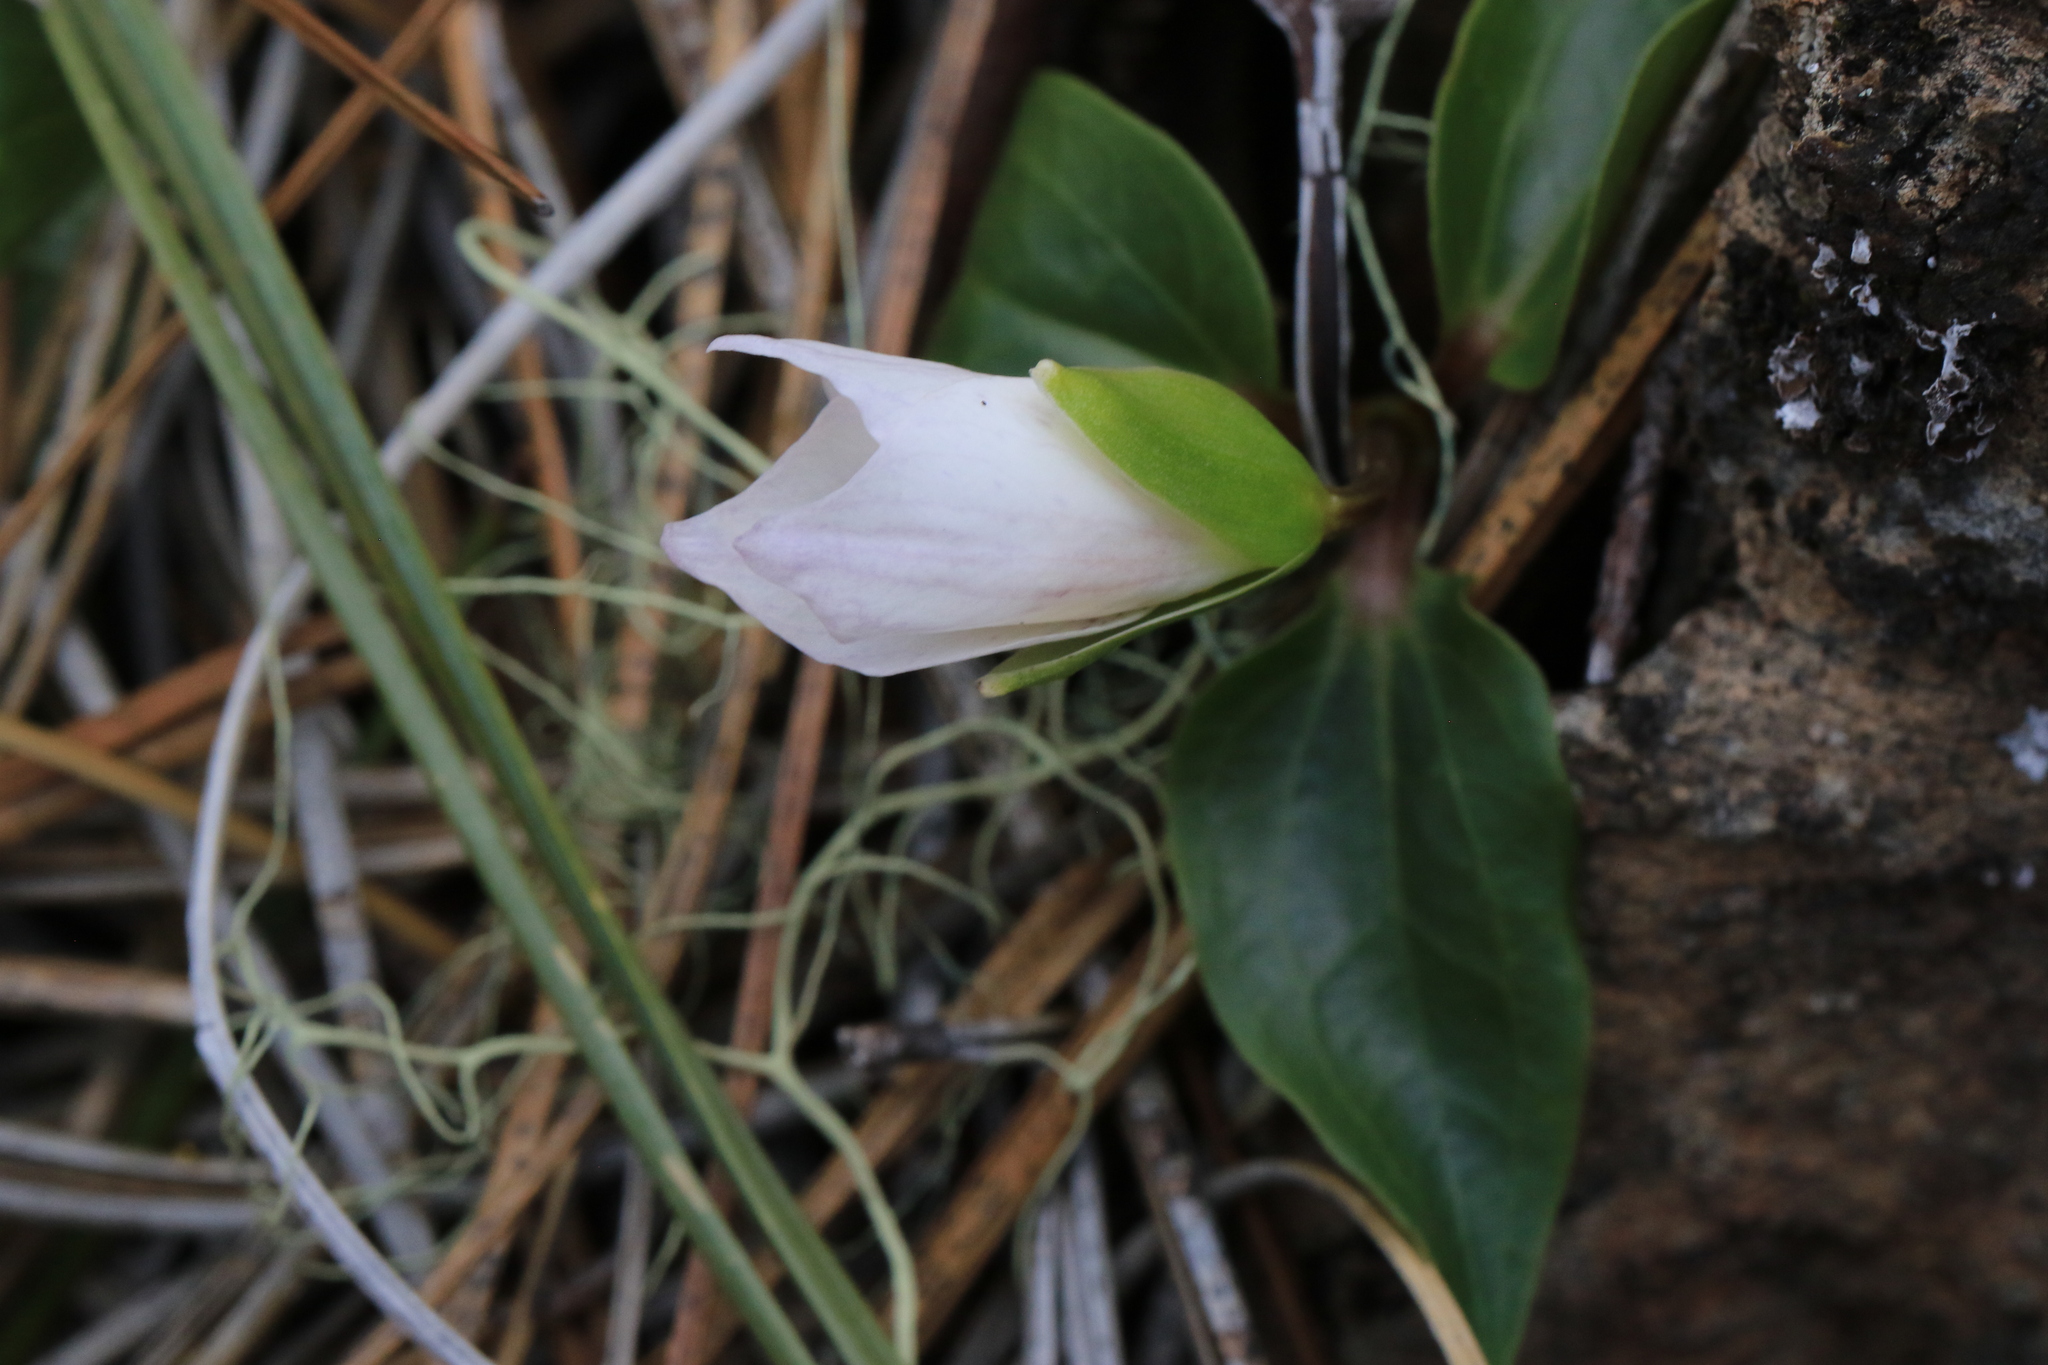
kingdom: Plantae
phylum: Tracheophyta
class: Liliopsida
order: Liliales
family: Melanthiaceae
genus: Pseudotrillium
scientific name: Pseudotrillium rivale
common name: Brook wakerobin
